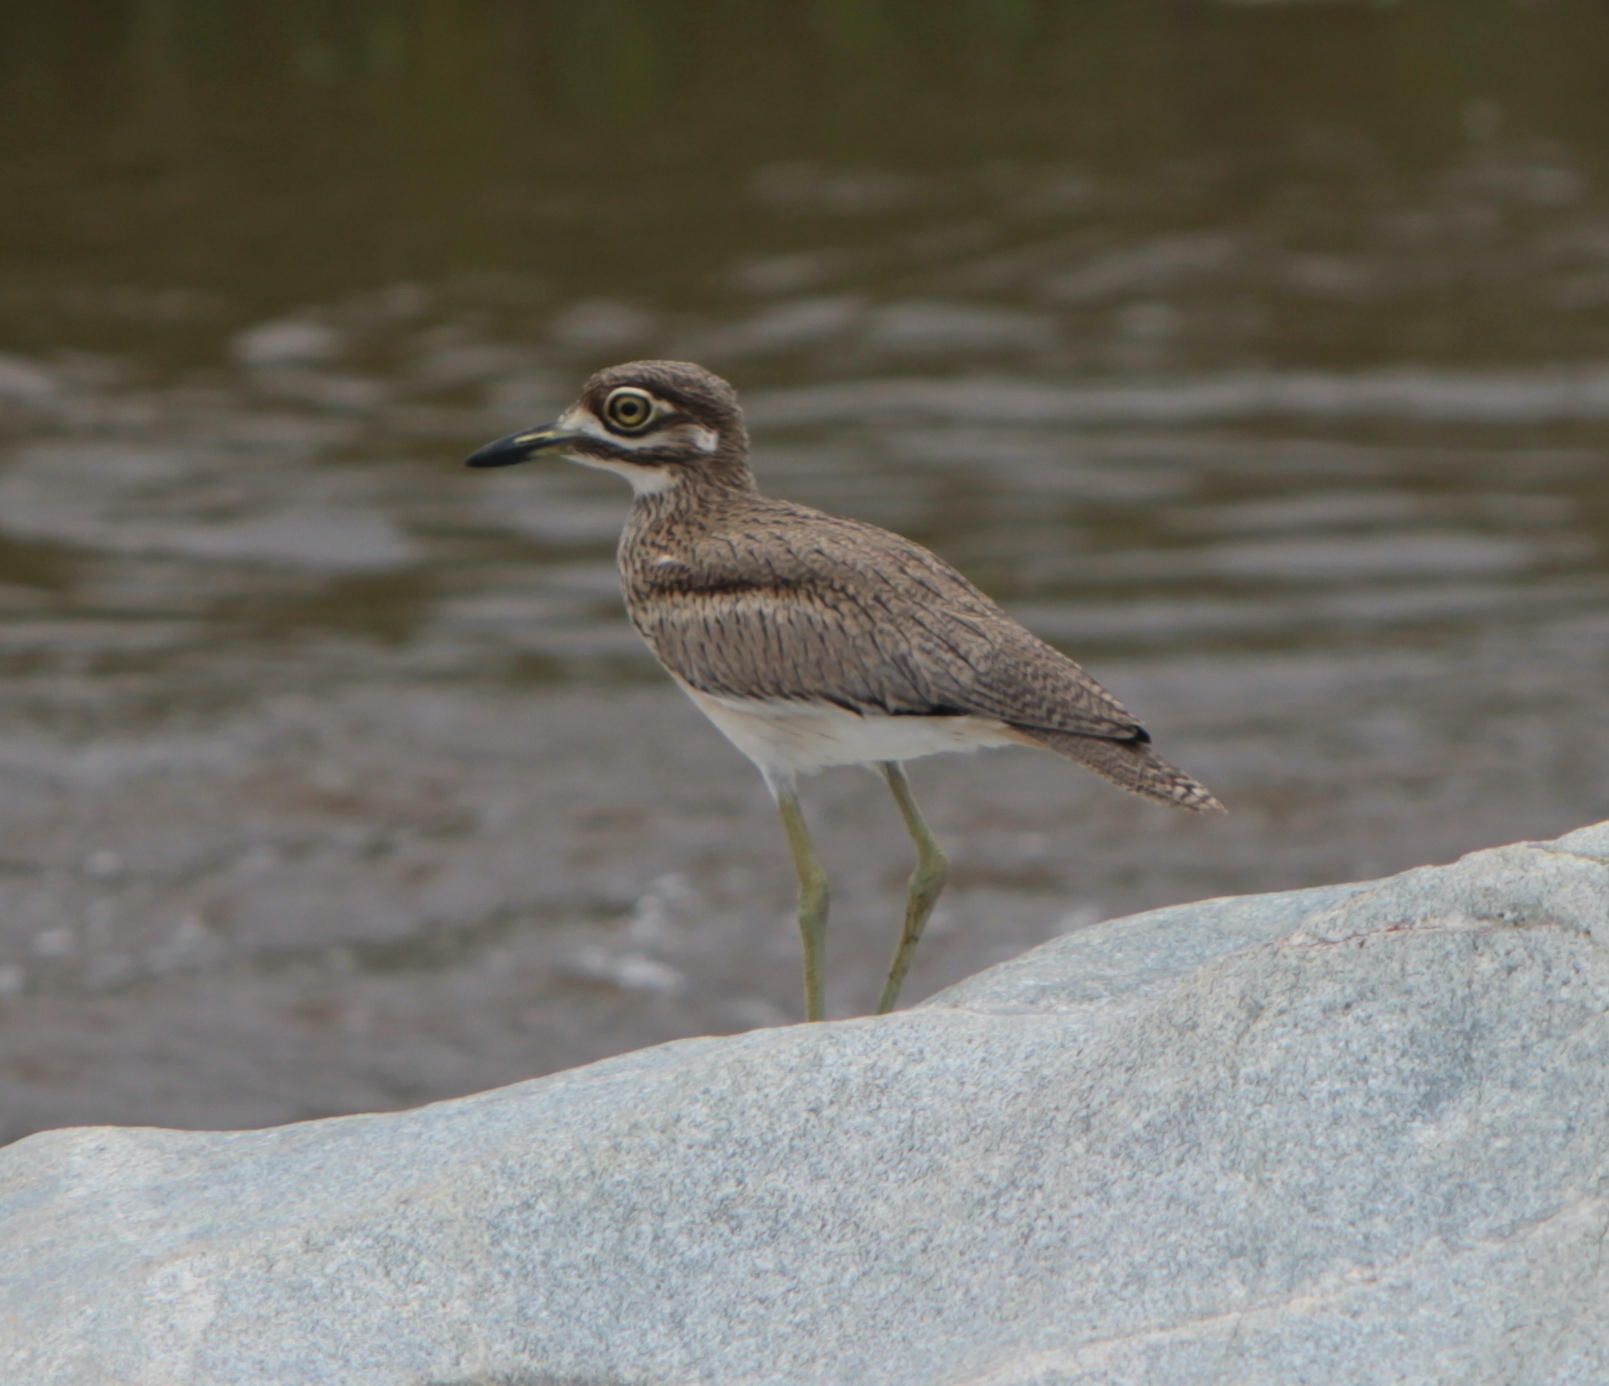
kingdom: Animalia
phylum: Chordata
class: Aves
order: Charadriiformes
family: Burhinidae
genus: Burhinus
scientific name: Burhinus vermiculatus
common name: Water thick-knee
